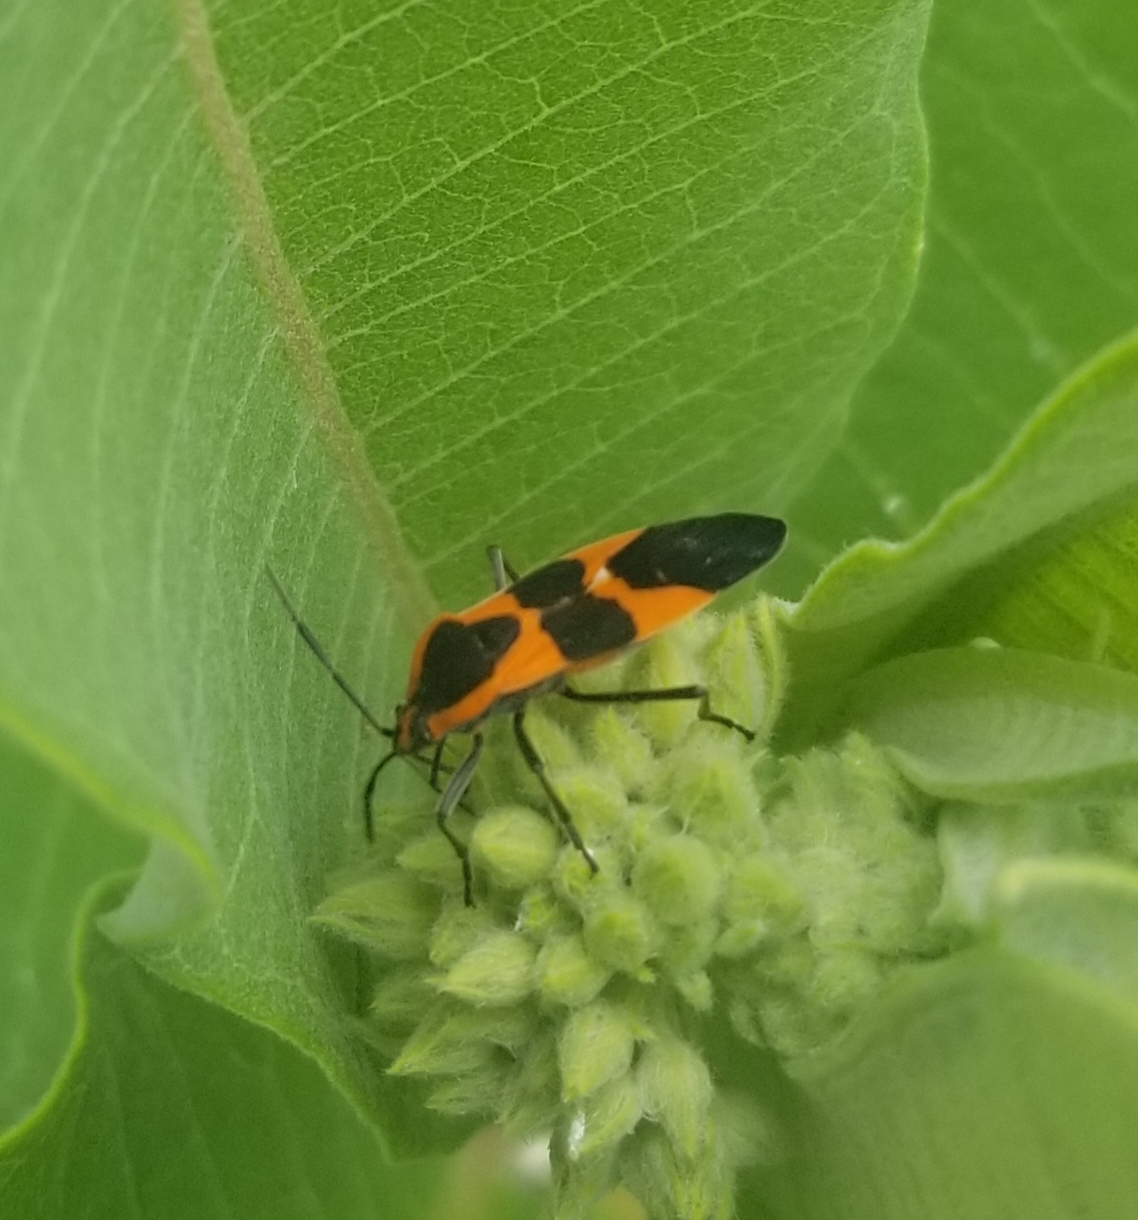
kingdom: Animalia
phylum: Arthropoda
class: Insecta
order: Hemiptera
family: Lygaeidae
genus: Oncopeltus
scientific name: Oncopeltus fasciatus
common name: Large milkweed bug
